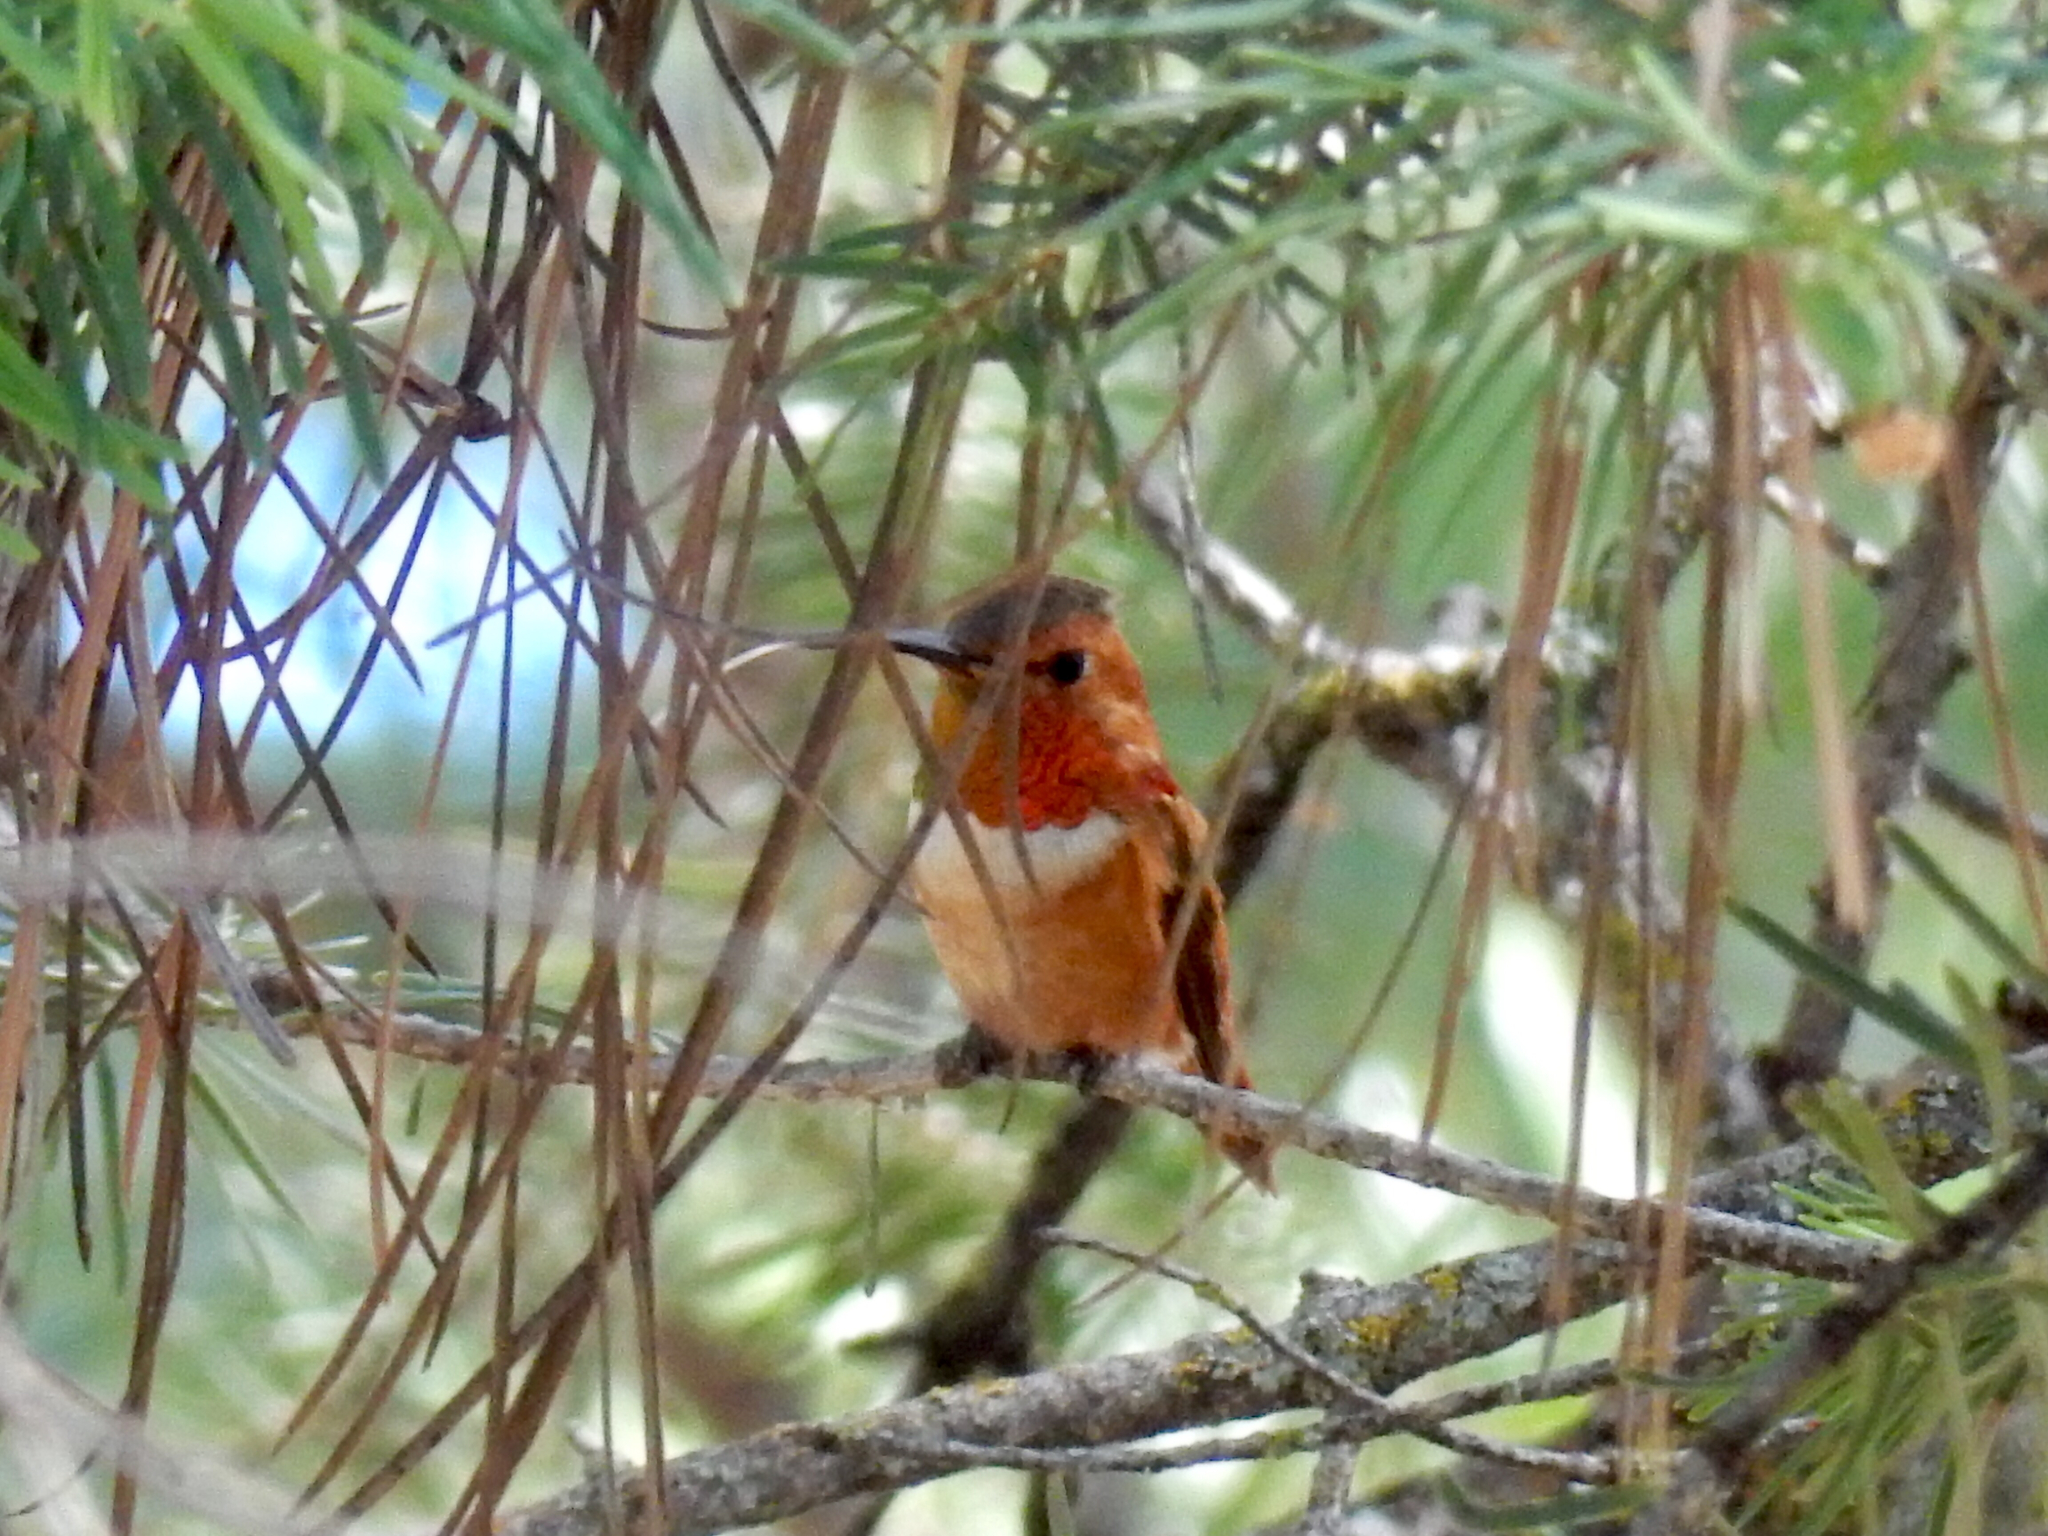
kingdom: Animalia
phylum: Chordata
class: Aves
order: Apodiformes
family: Trochilidae
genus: Selasphorus
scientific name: Selasphorus rufus
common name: Rufous hummingbird
